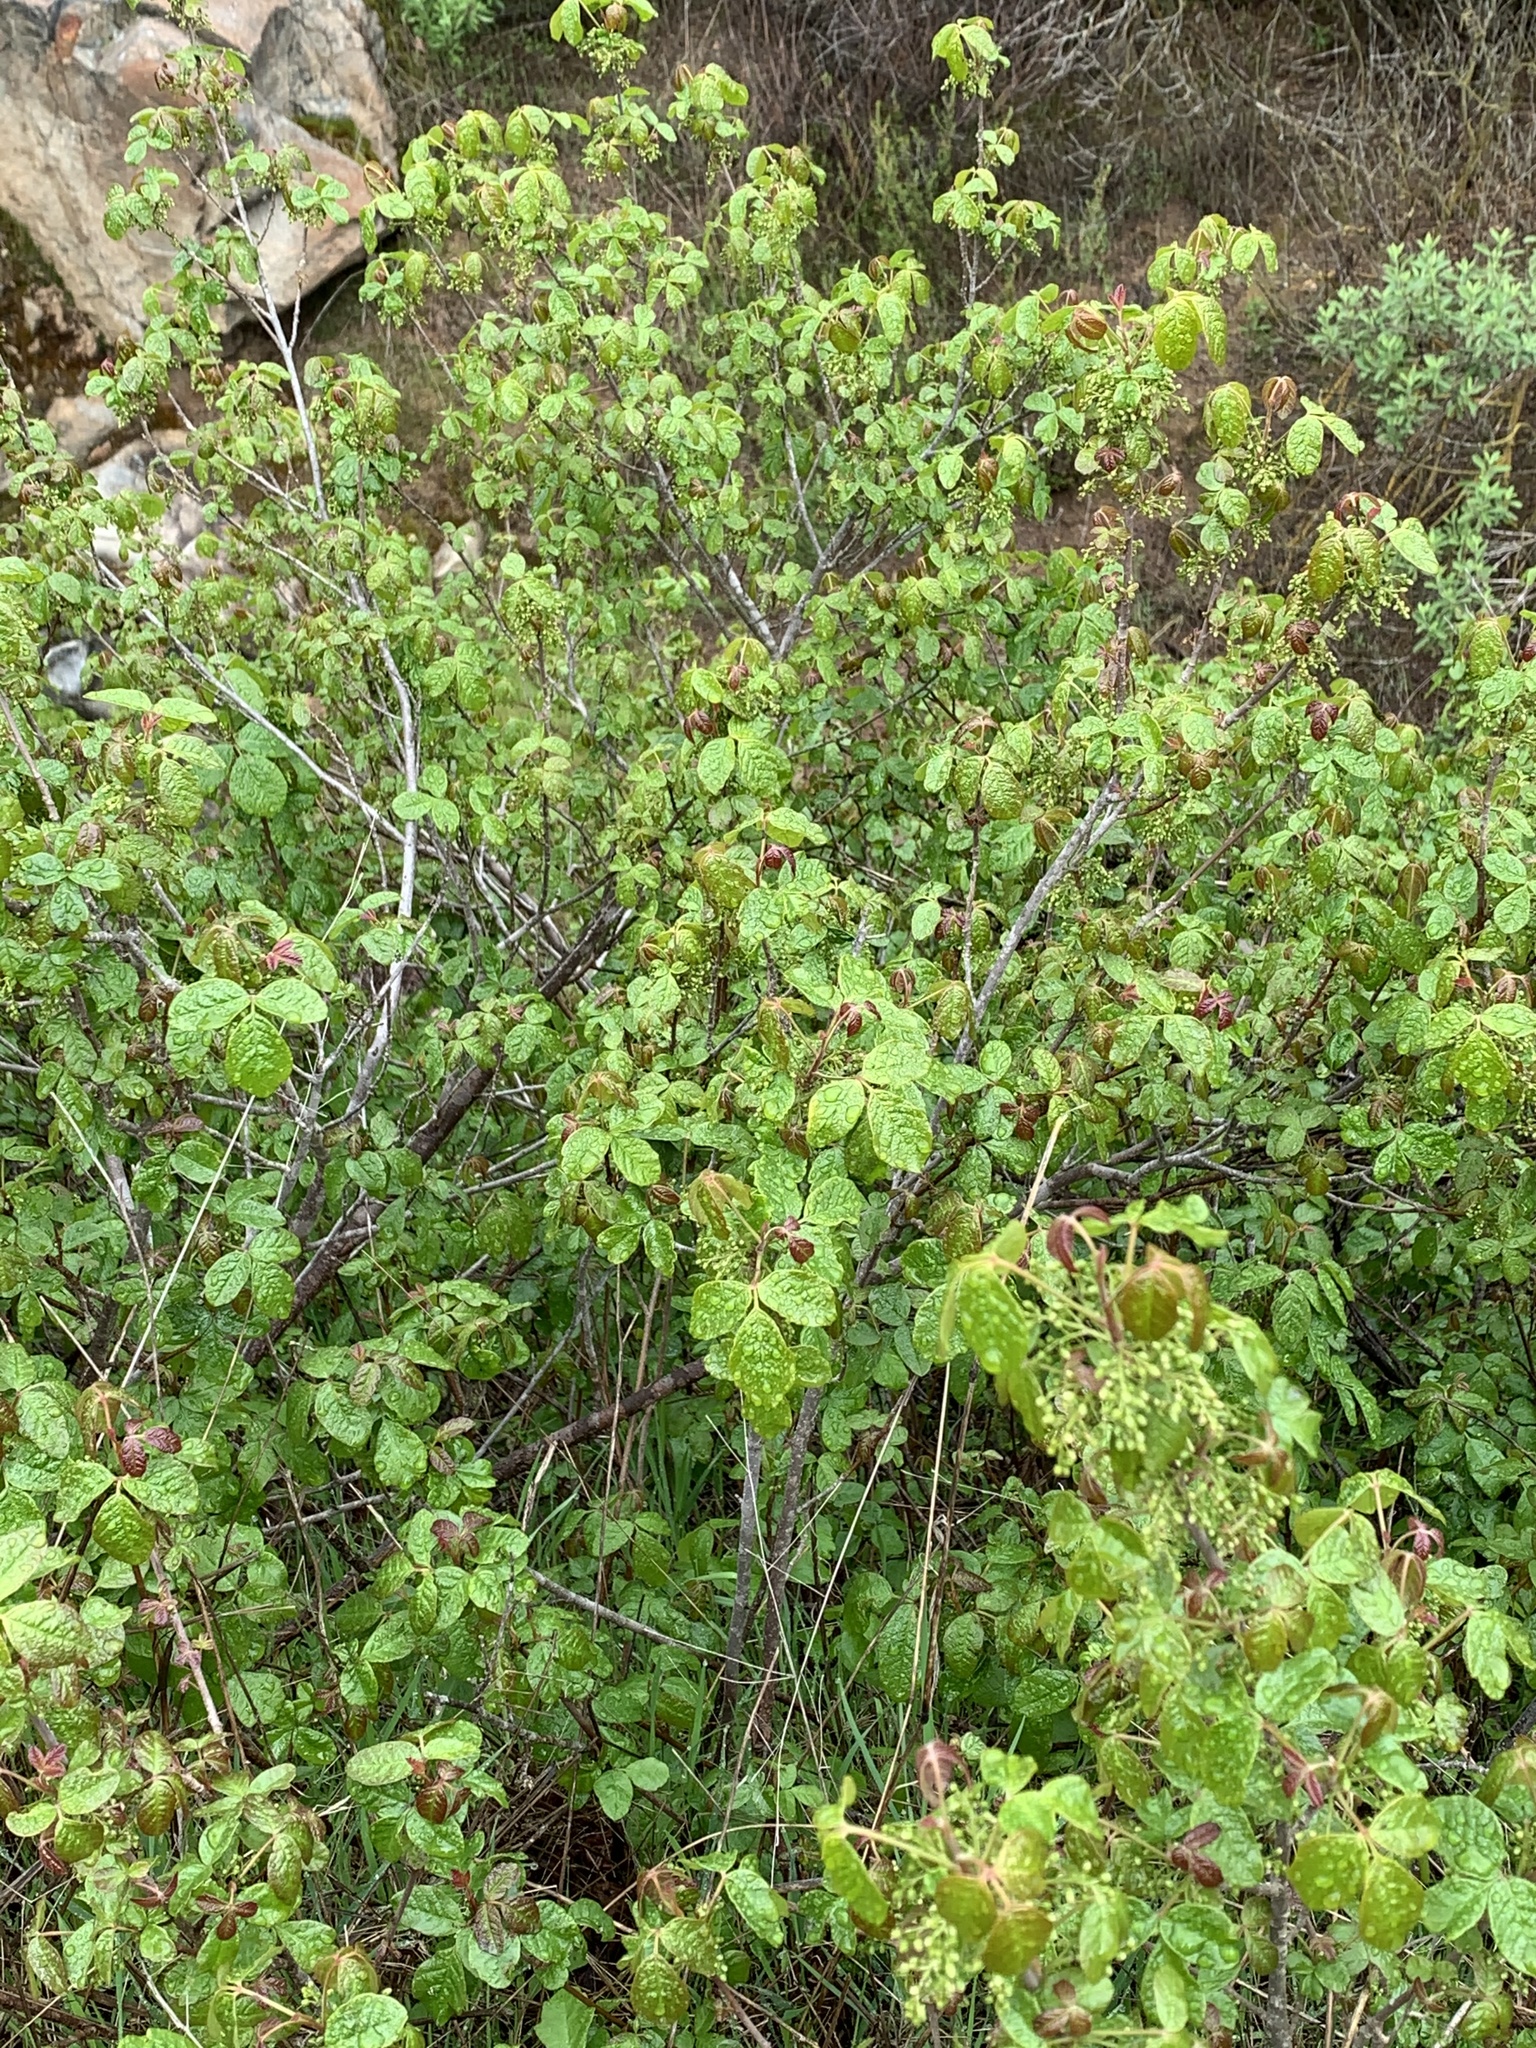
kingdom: Plantae
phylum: Tracheophyta
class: Magnoliopsida
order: Sapindales
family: Anacardiaceae
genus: Toxicodendron
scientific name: Toxicodendron diversilobum
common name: Pacific poison-oak
